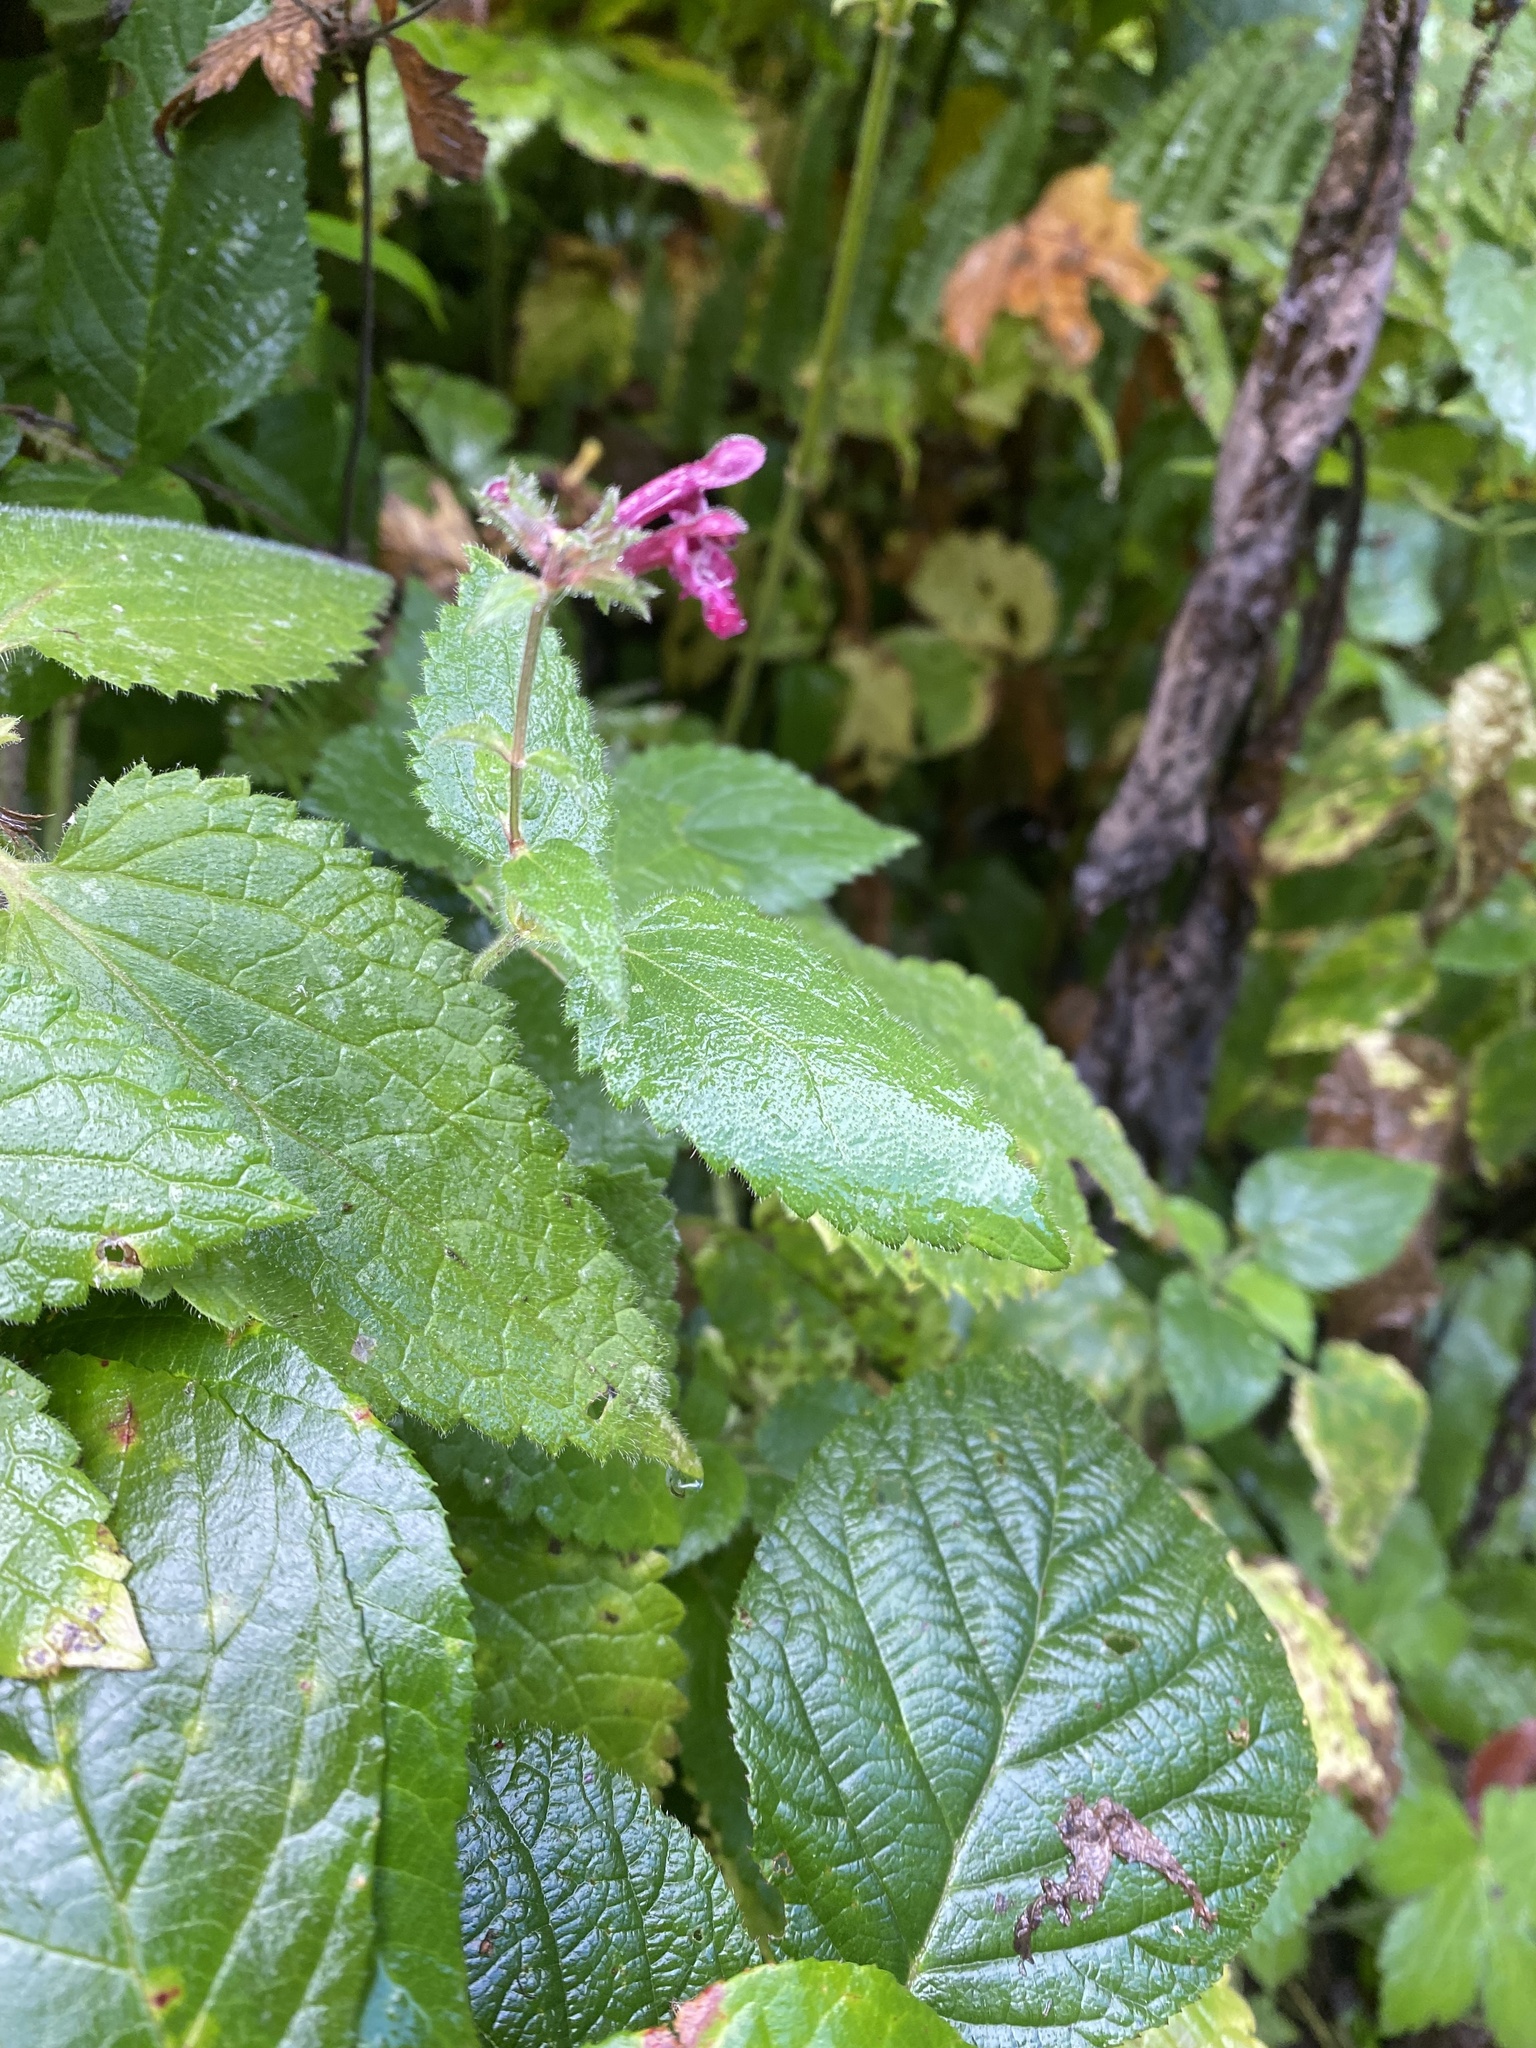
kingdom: Plantae
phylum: Tracheophyta
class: Magnoliopsida
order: Lamiales
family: Lamiaceae
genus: Stachys
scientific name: Stachys sylvatica
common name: Hedge woundwort
